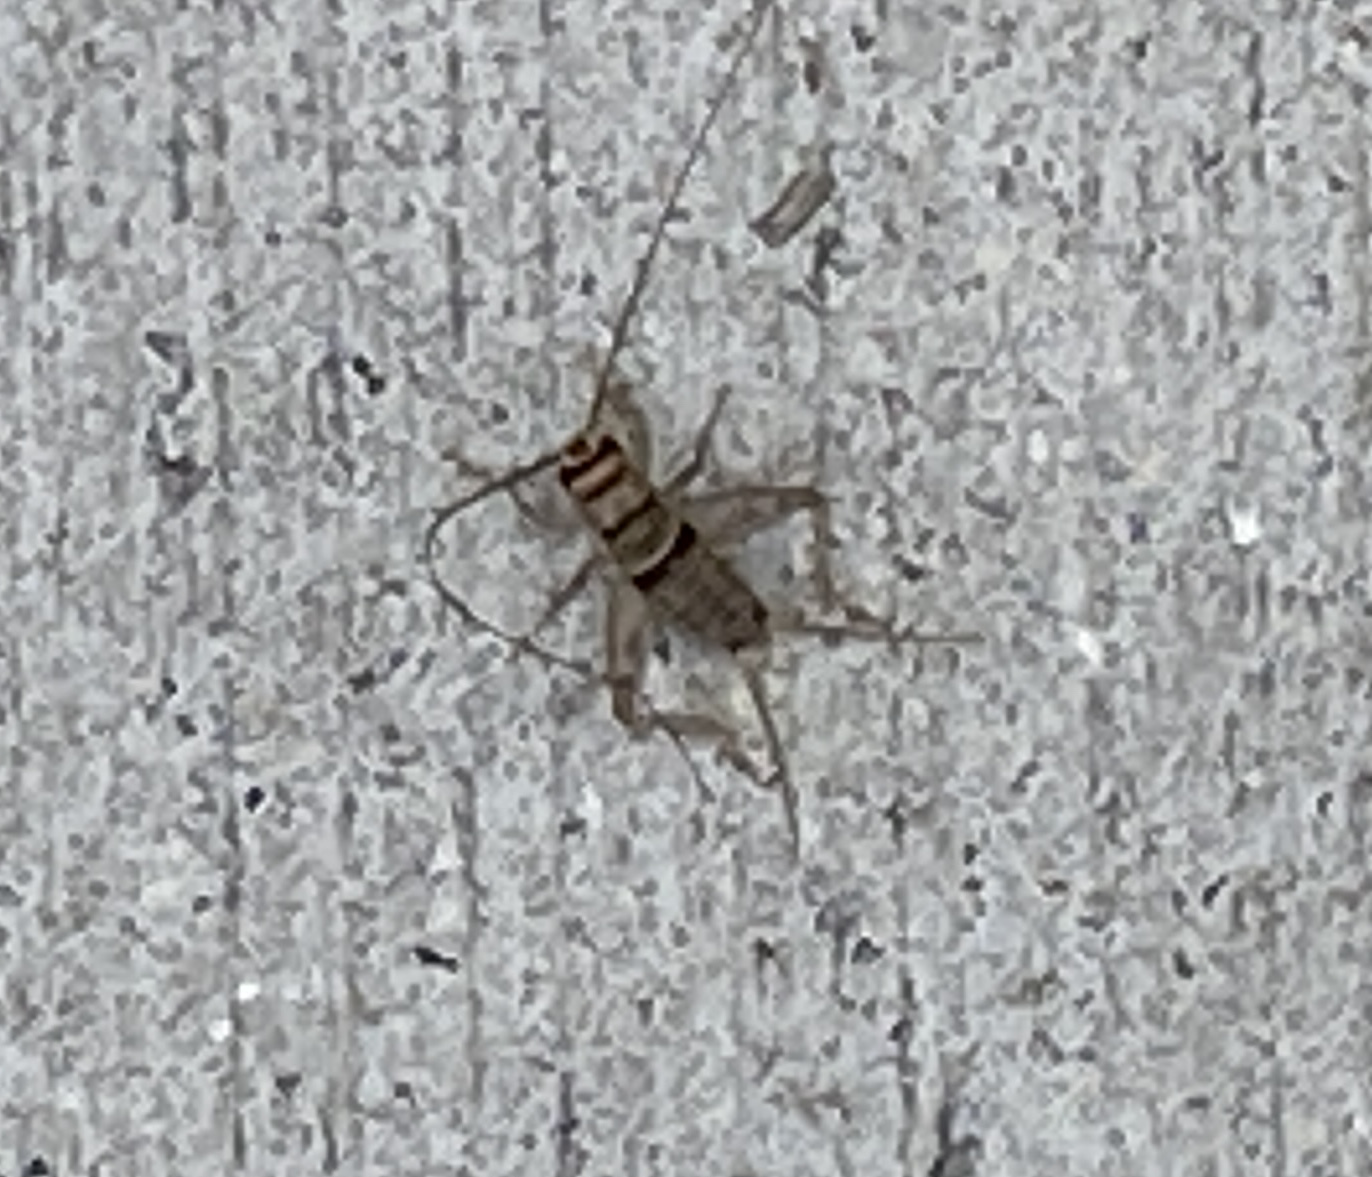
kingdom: Animalia
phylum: Arthropoda
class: Insecta
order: Orthoptera
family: Gryllidae
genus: Gryllodes
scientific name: Gryllodes sigillatus
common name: Tropical house cricket
